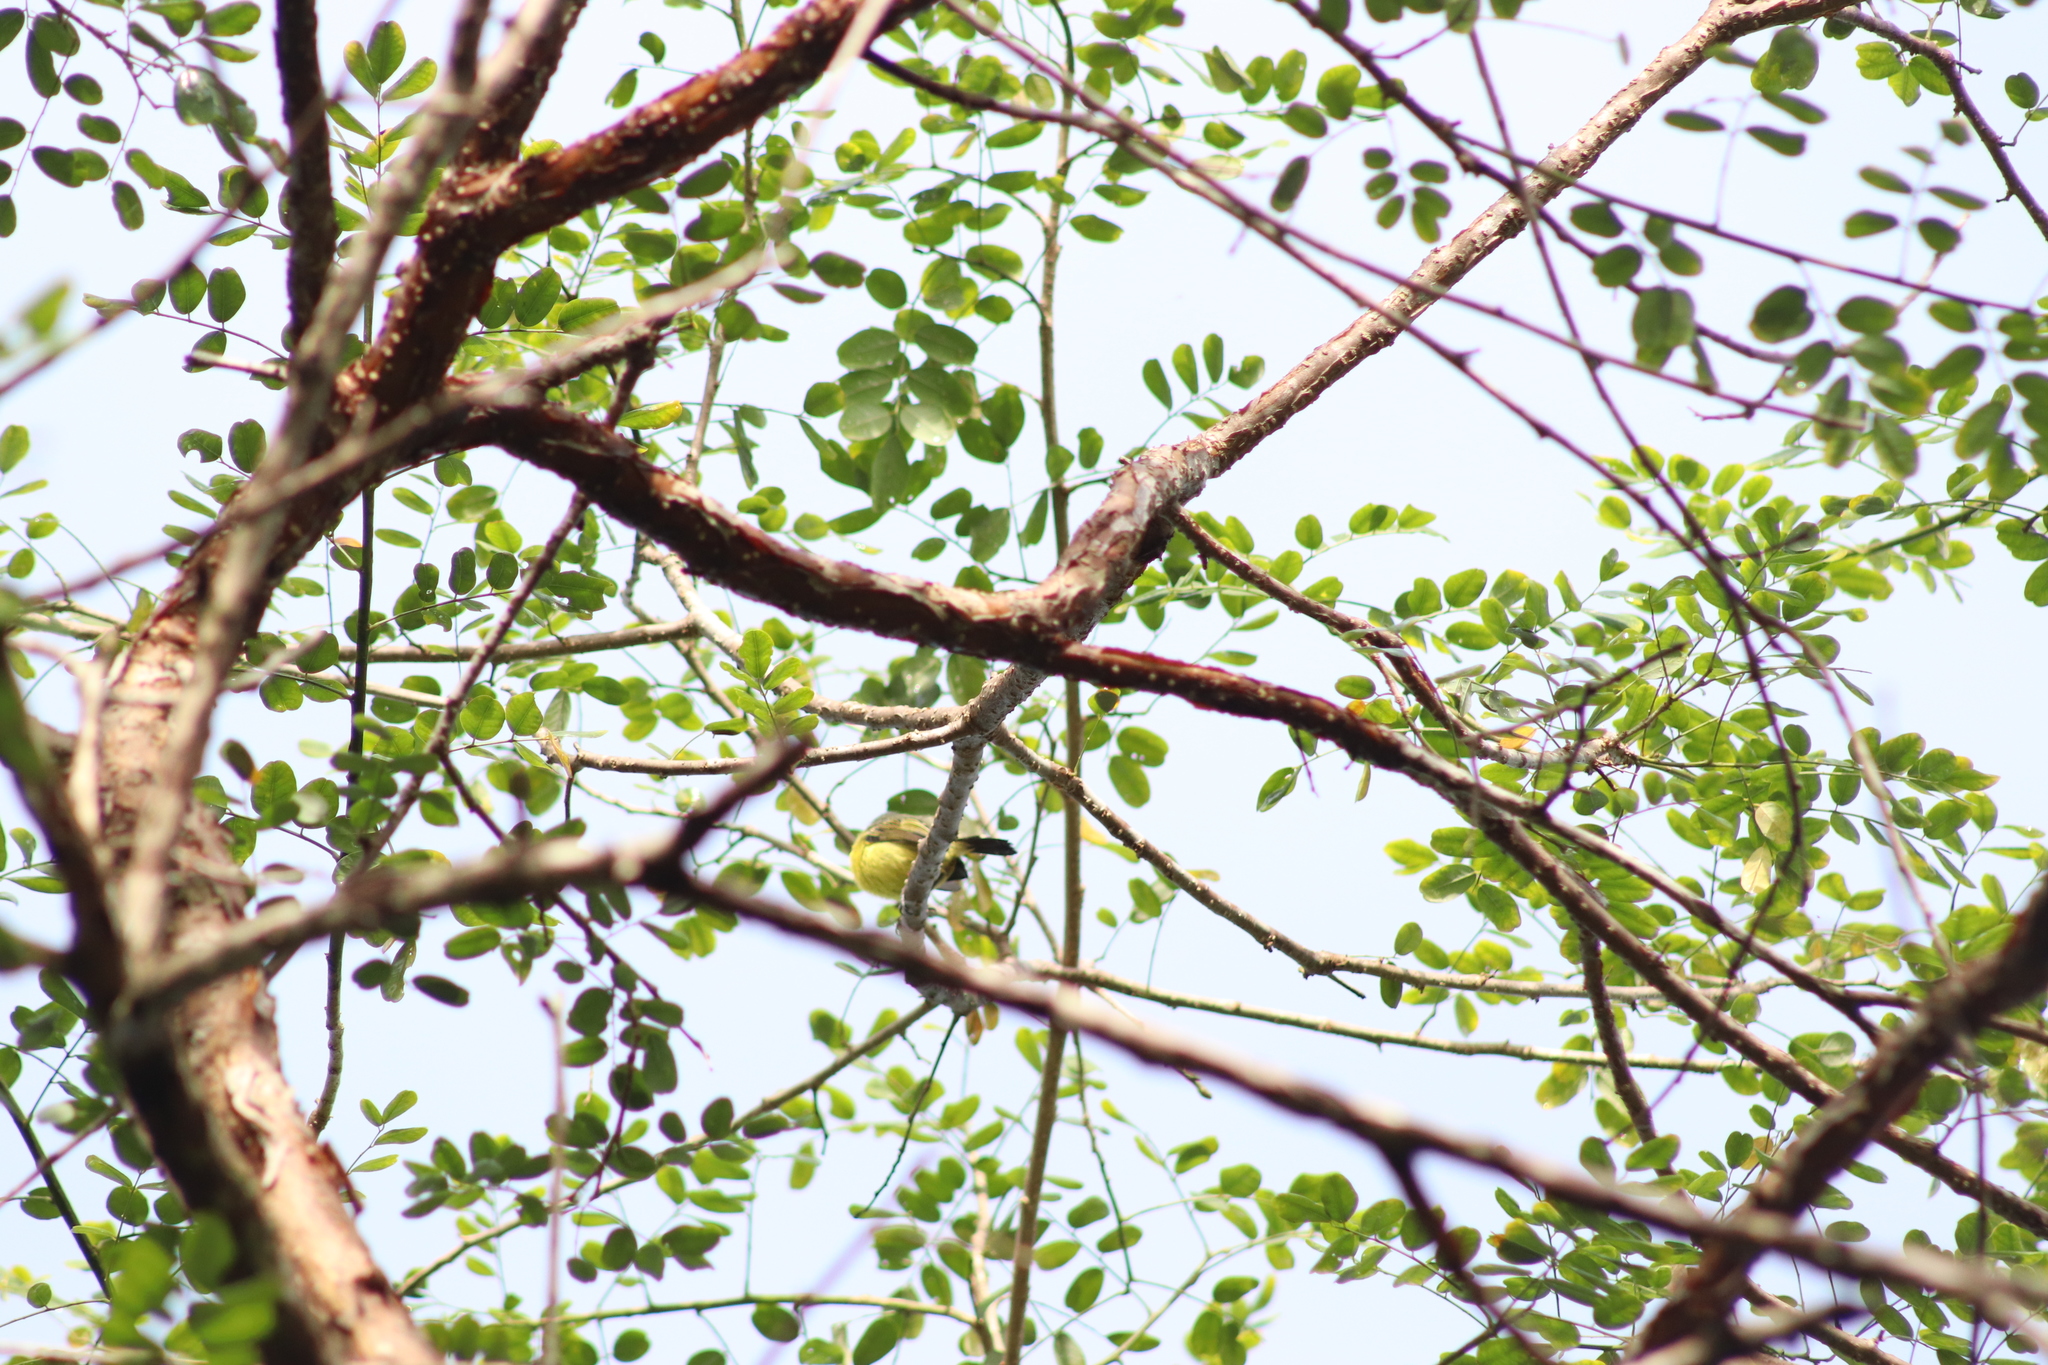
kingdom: Animalia
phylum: Chordata
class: Aves
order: Passeriformes
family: Tyrannidae
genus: Todirostrum
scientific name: Todirostrum cinereum
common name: Common tody-flycatcher
